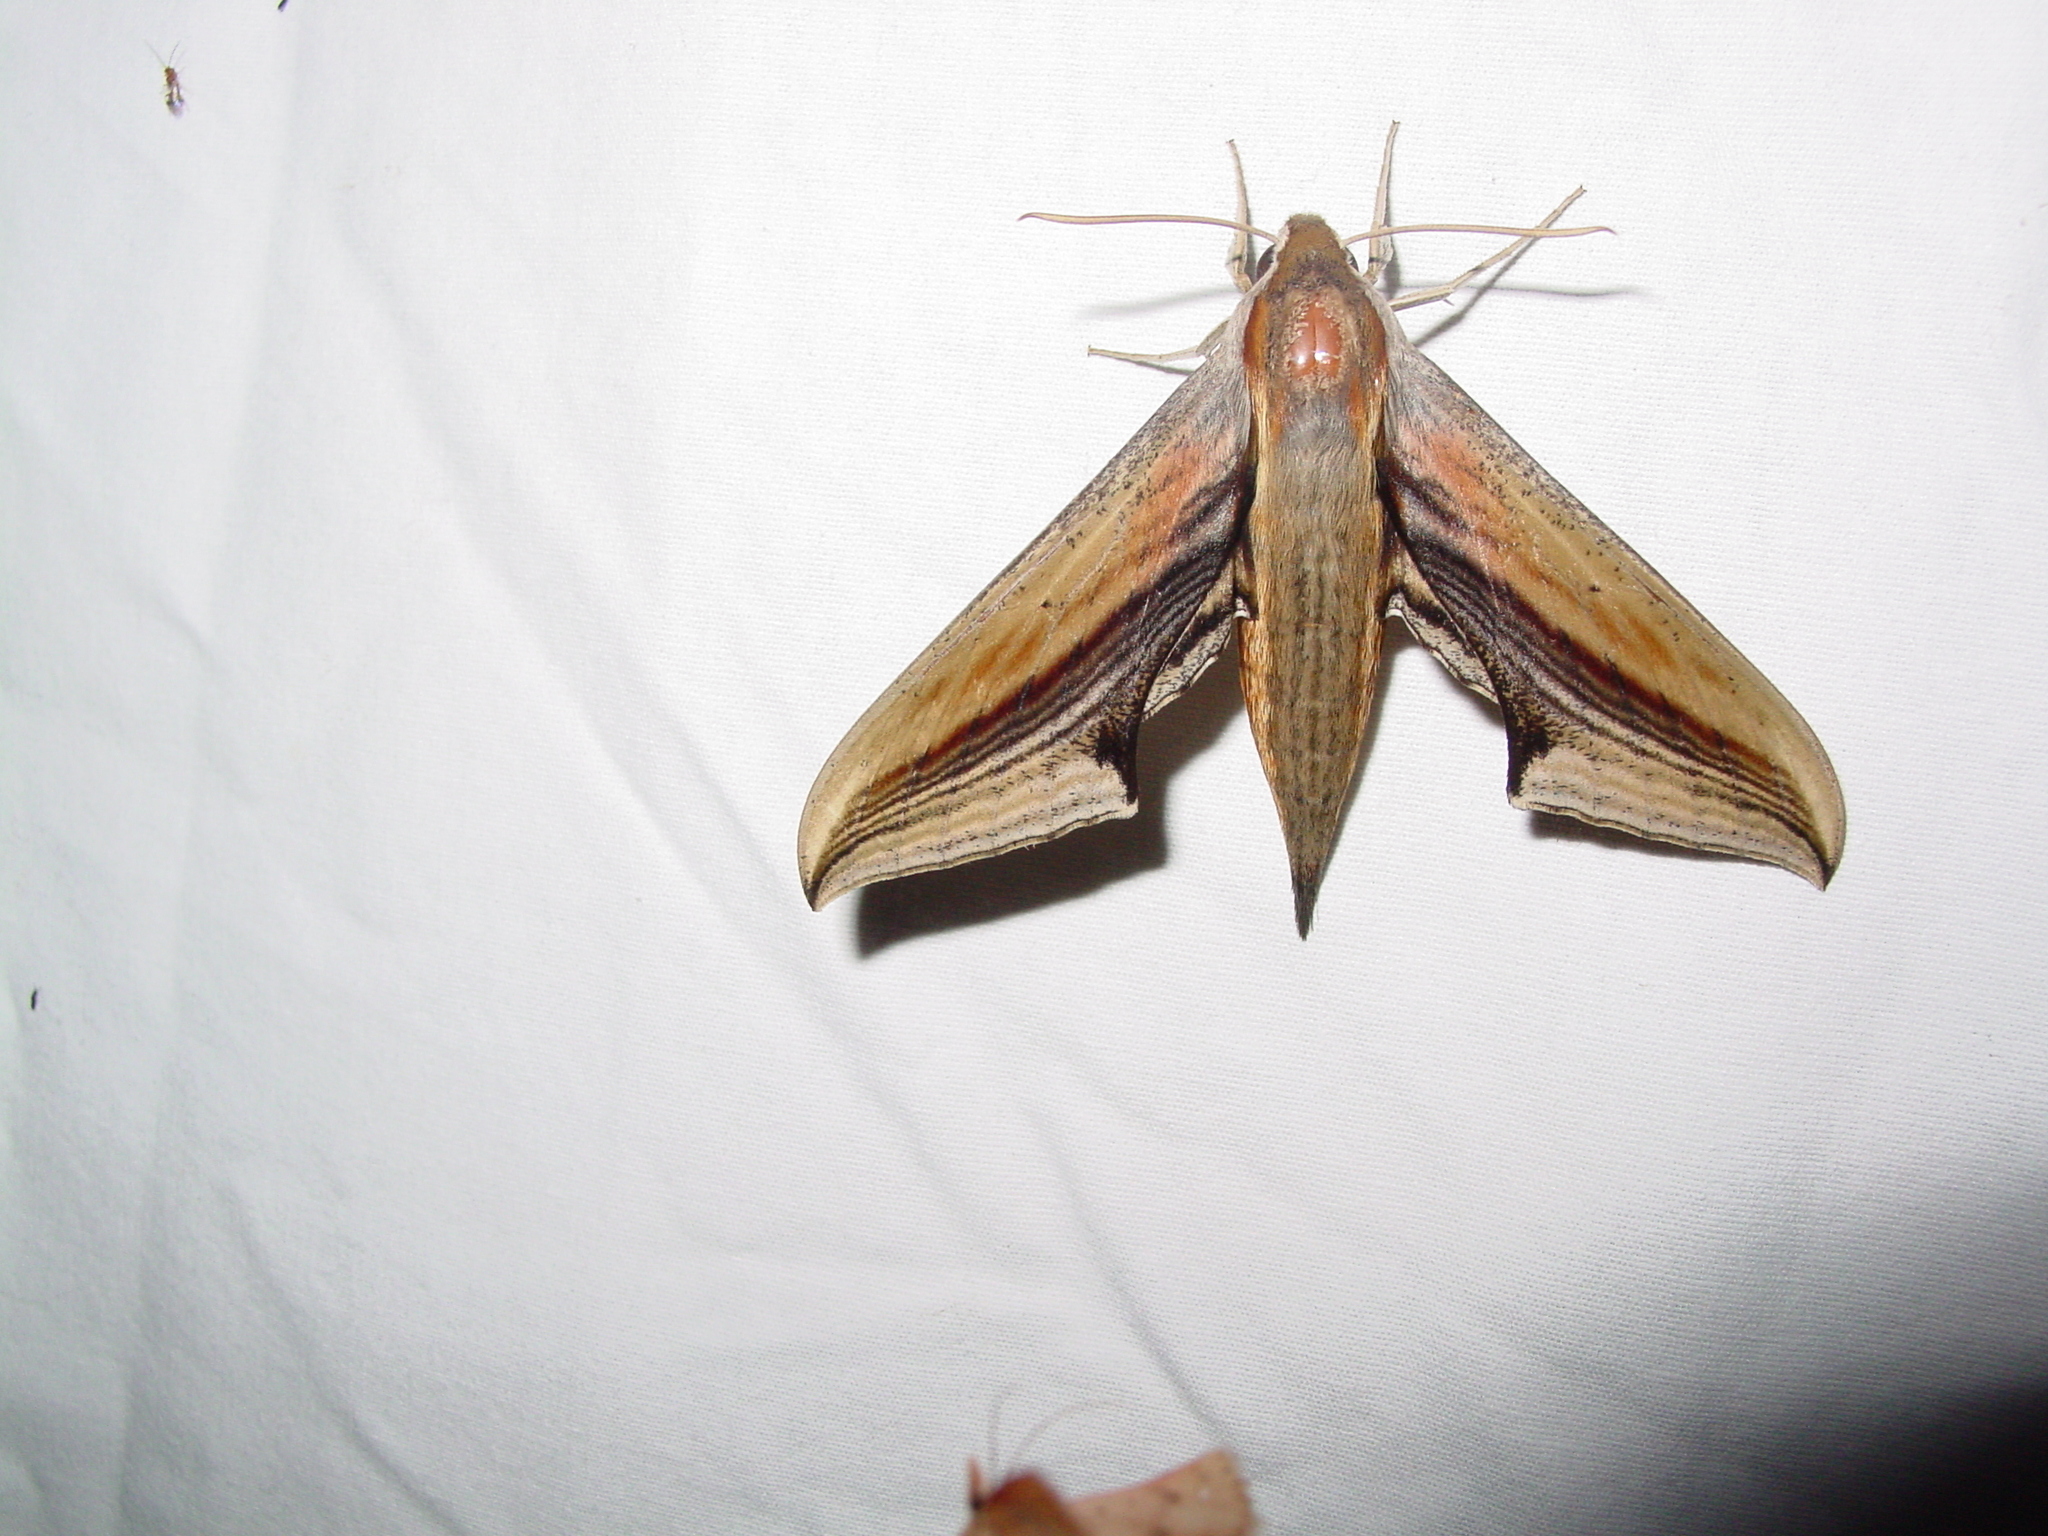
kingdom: Animalia
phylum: Arthropoda
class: Insecta
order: Lepidoptera
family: Sphingidae
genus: Xylophanes
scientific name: Xylophanes falco
